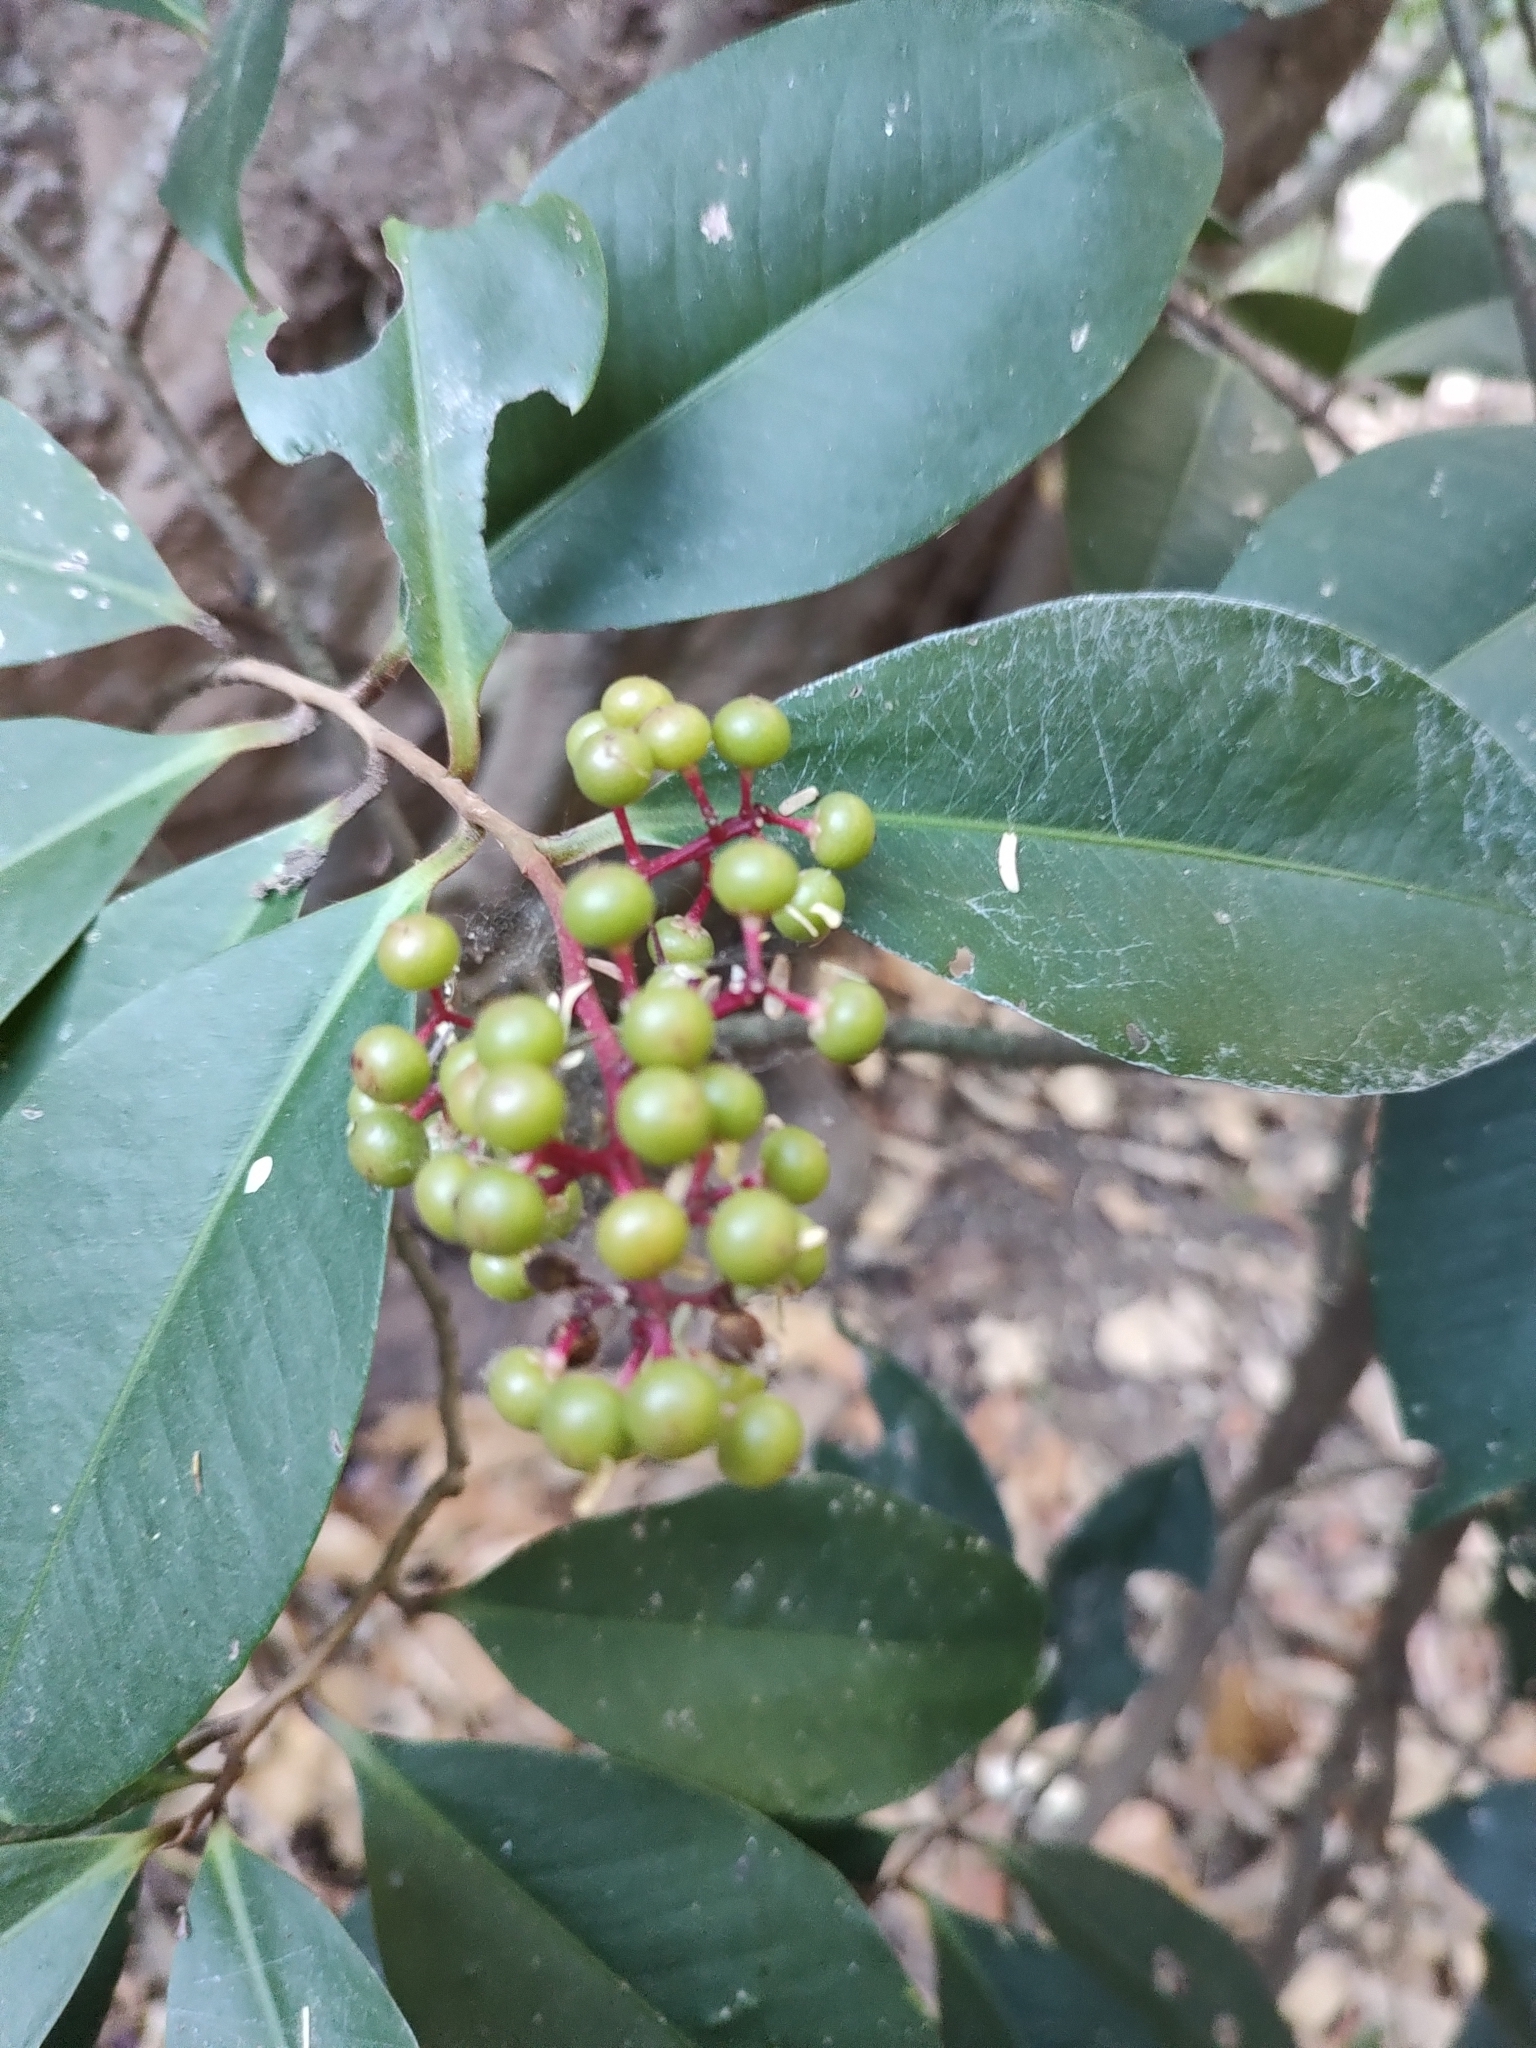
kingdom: Plantae
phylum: Tracheophyta
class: Magnoliopsida
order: Ericales
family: Primulaceae
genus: Ardisia
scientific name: Ardisia compressa
